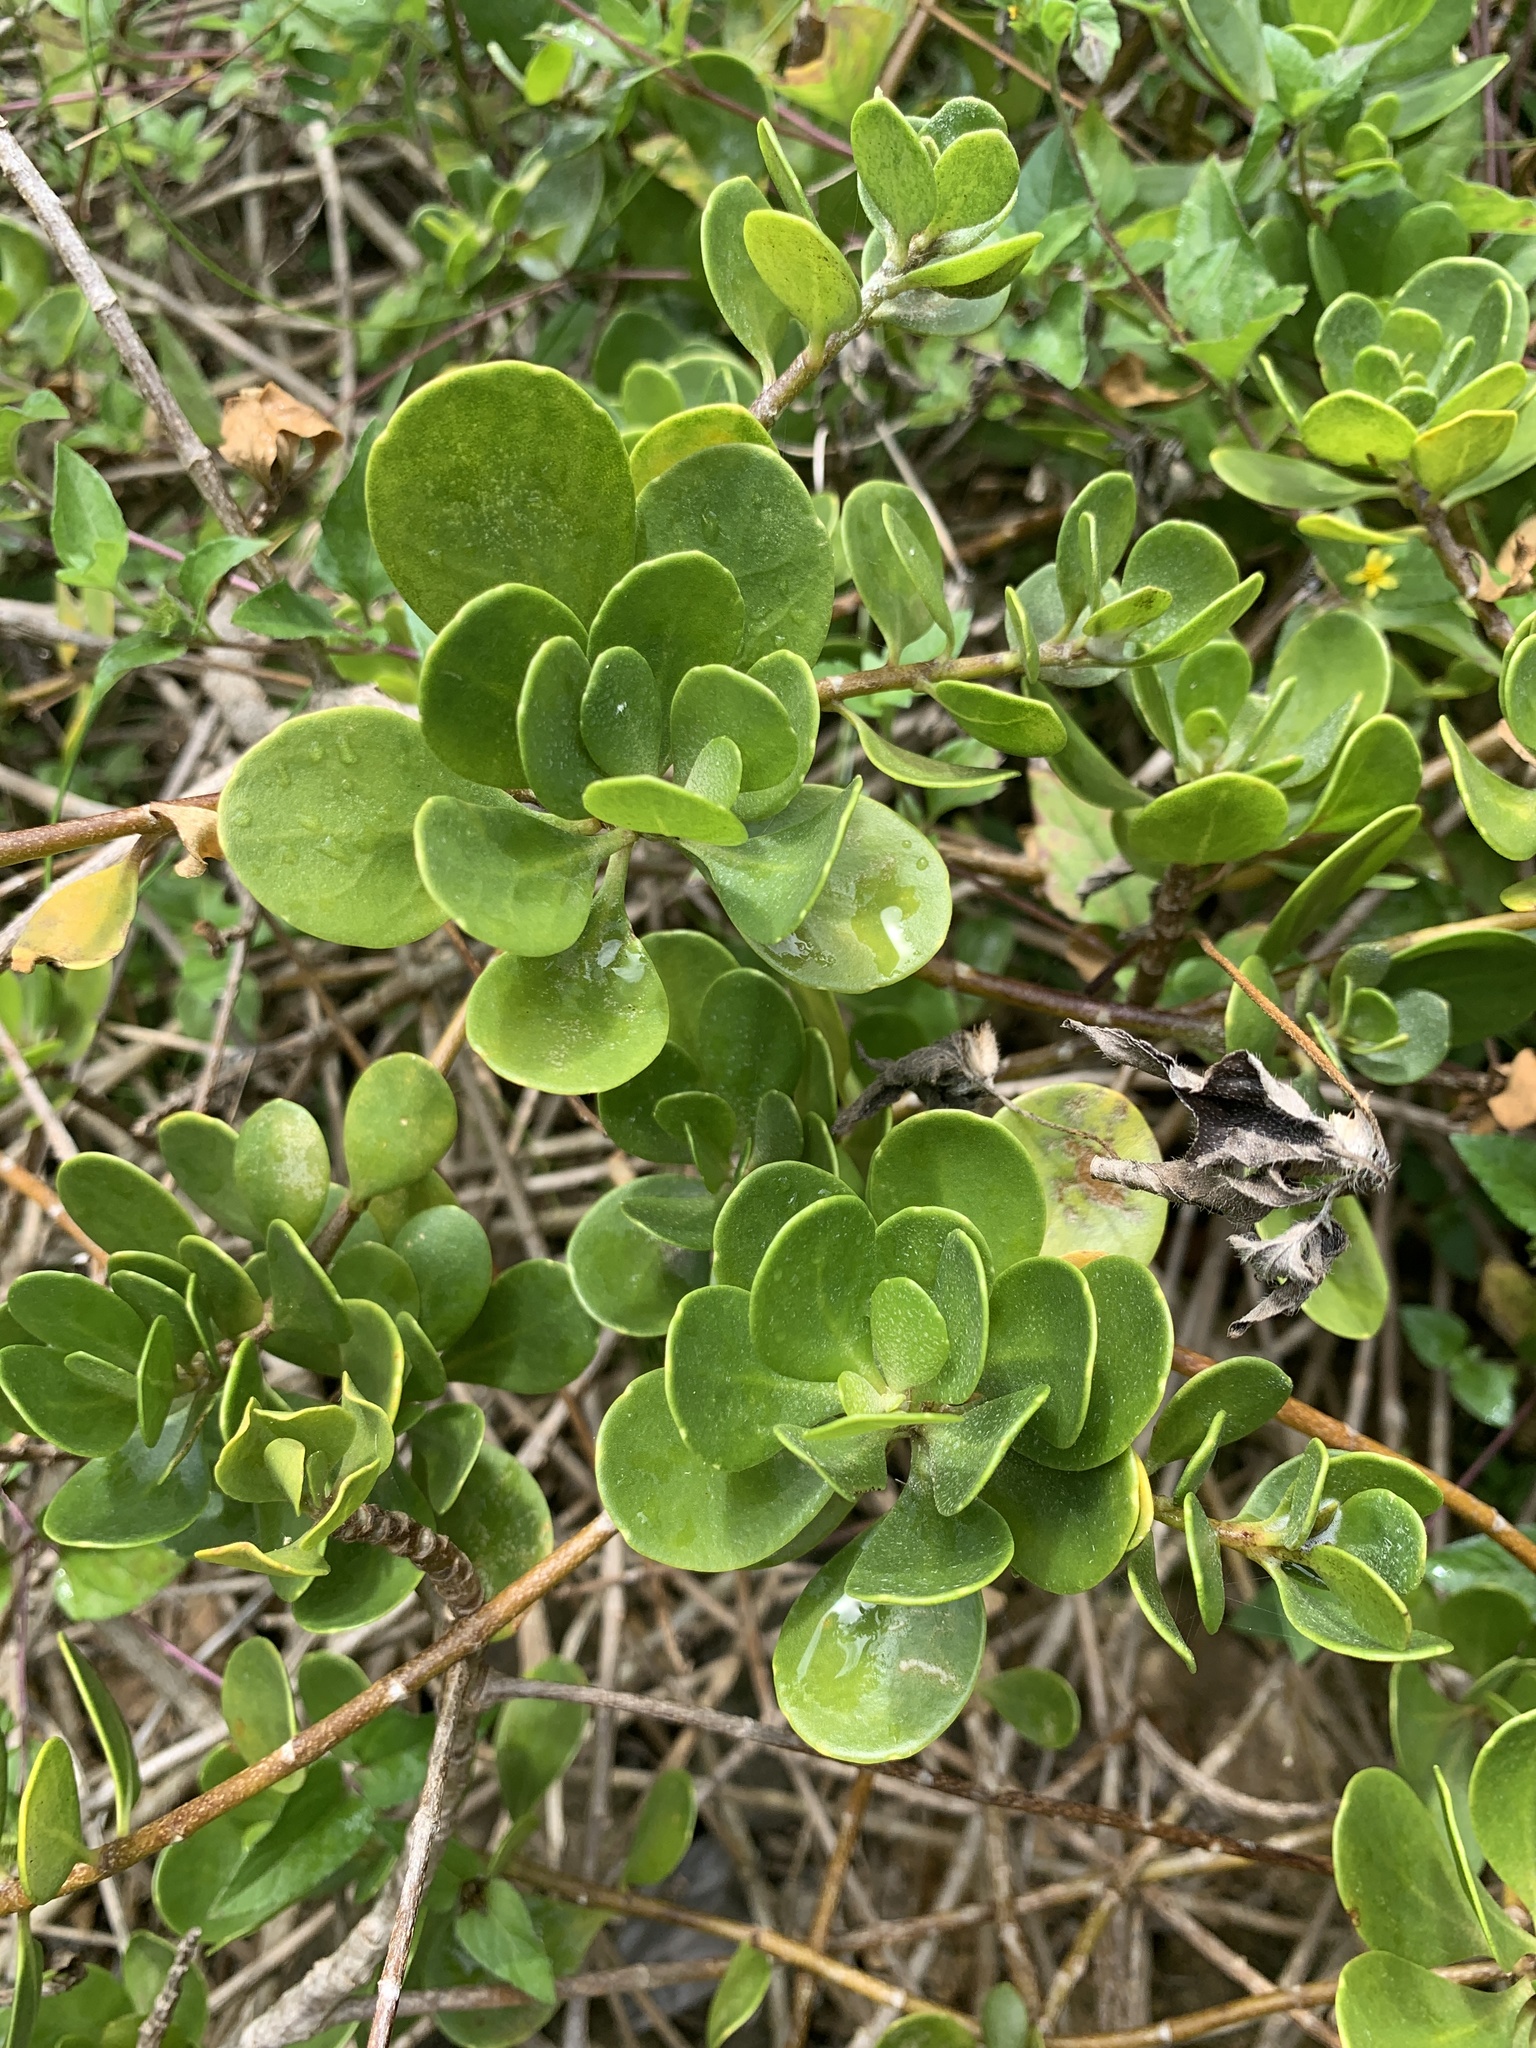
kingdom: Plantae
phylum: Tracheophyta
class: Magnoliopsida
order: Asterales
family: Goodeniaceae
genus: Scaevola
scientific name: Scaevola coriacea
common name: Dwarf naupaka
